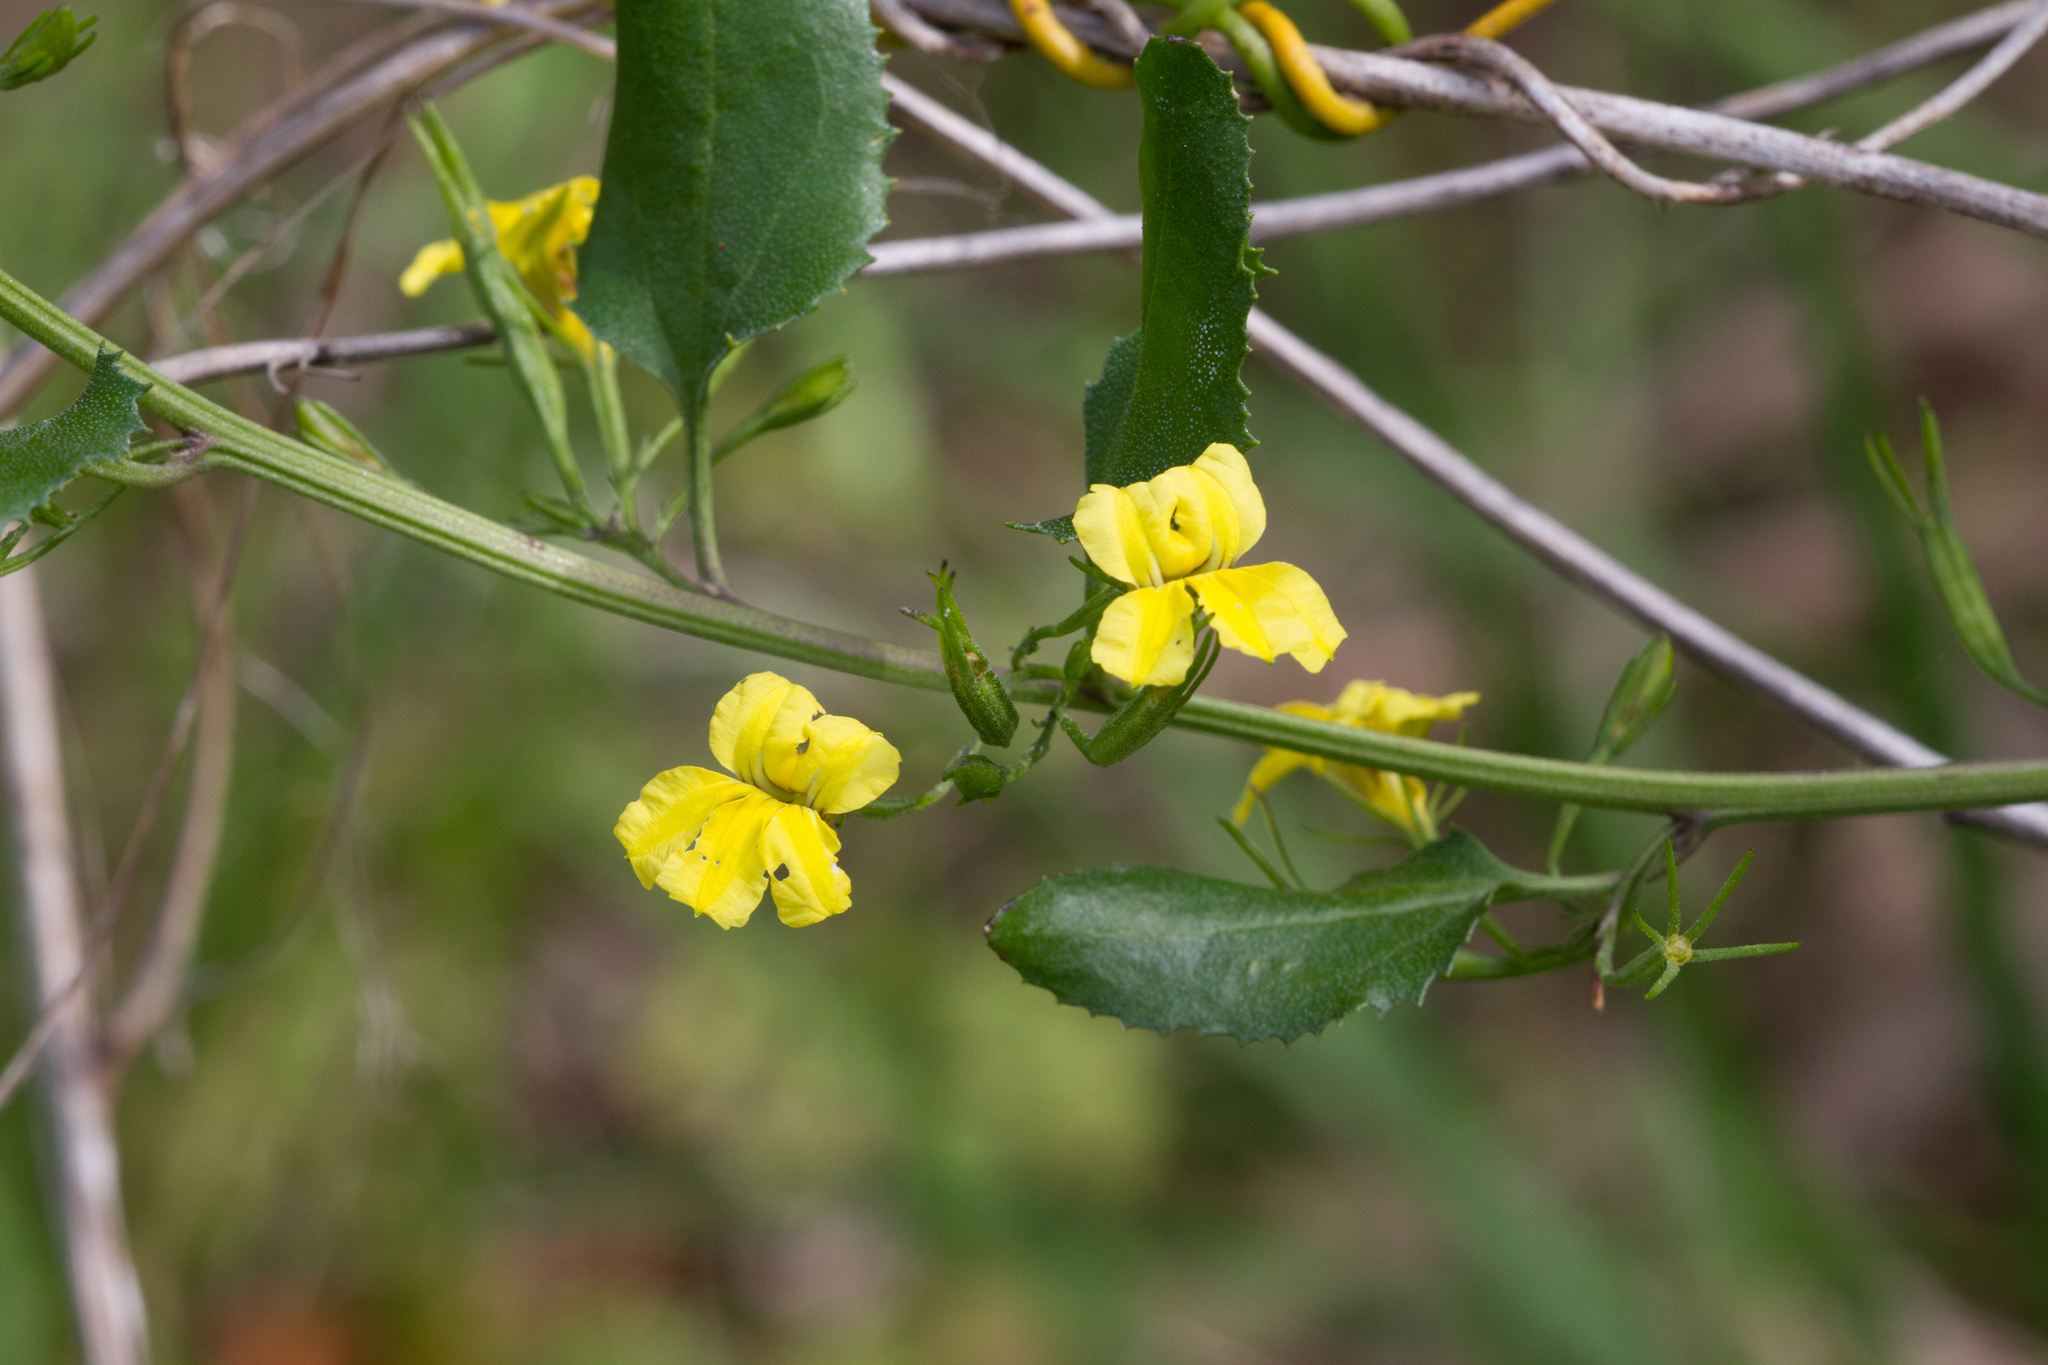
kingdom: Plantae
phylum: Tracheophyta
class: Magnoliopsida
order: Asterales
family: Goodeniaceae
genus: Goodenia
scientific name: Goodenia ovata
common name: Hop goodenia
